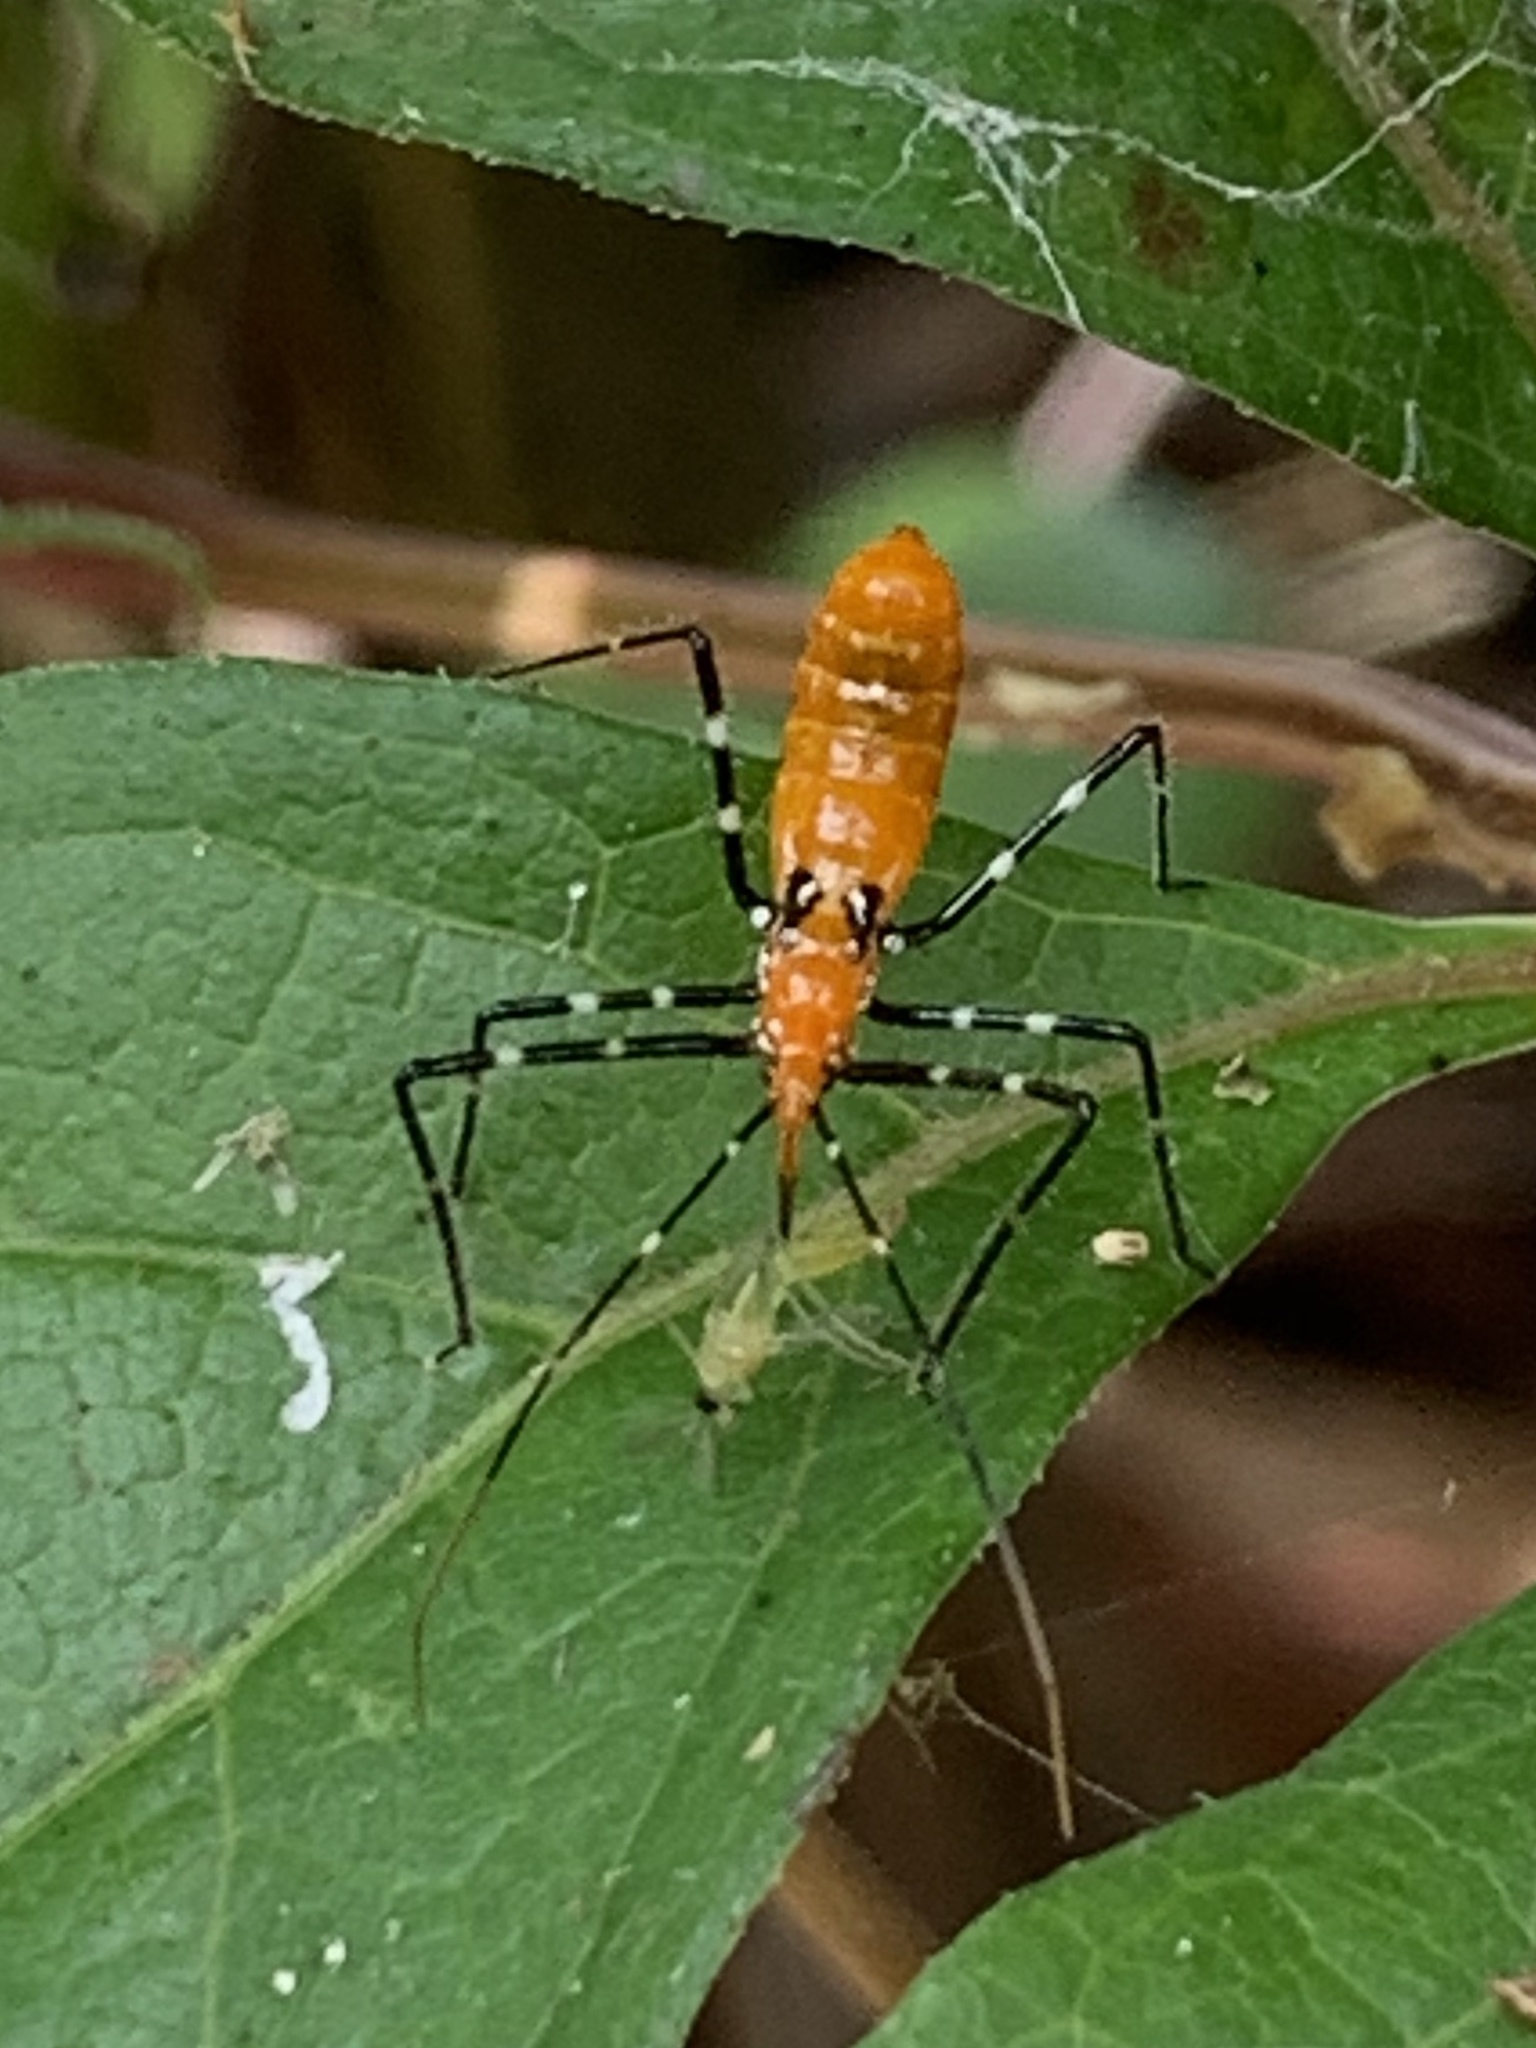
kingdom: Animalia
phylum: Arthropoda
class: Insecta
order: Hemiptera
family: Reduviidae
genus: Zelus
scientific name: Zelus longipes
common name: Milkweed assassin bug
